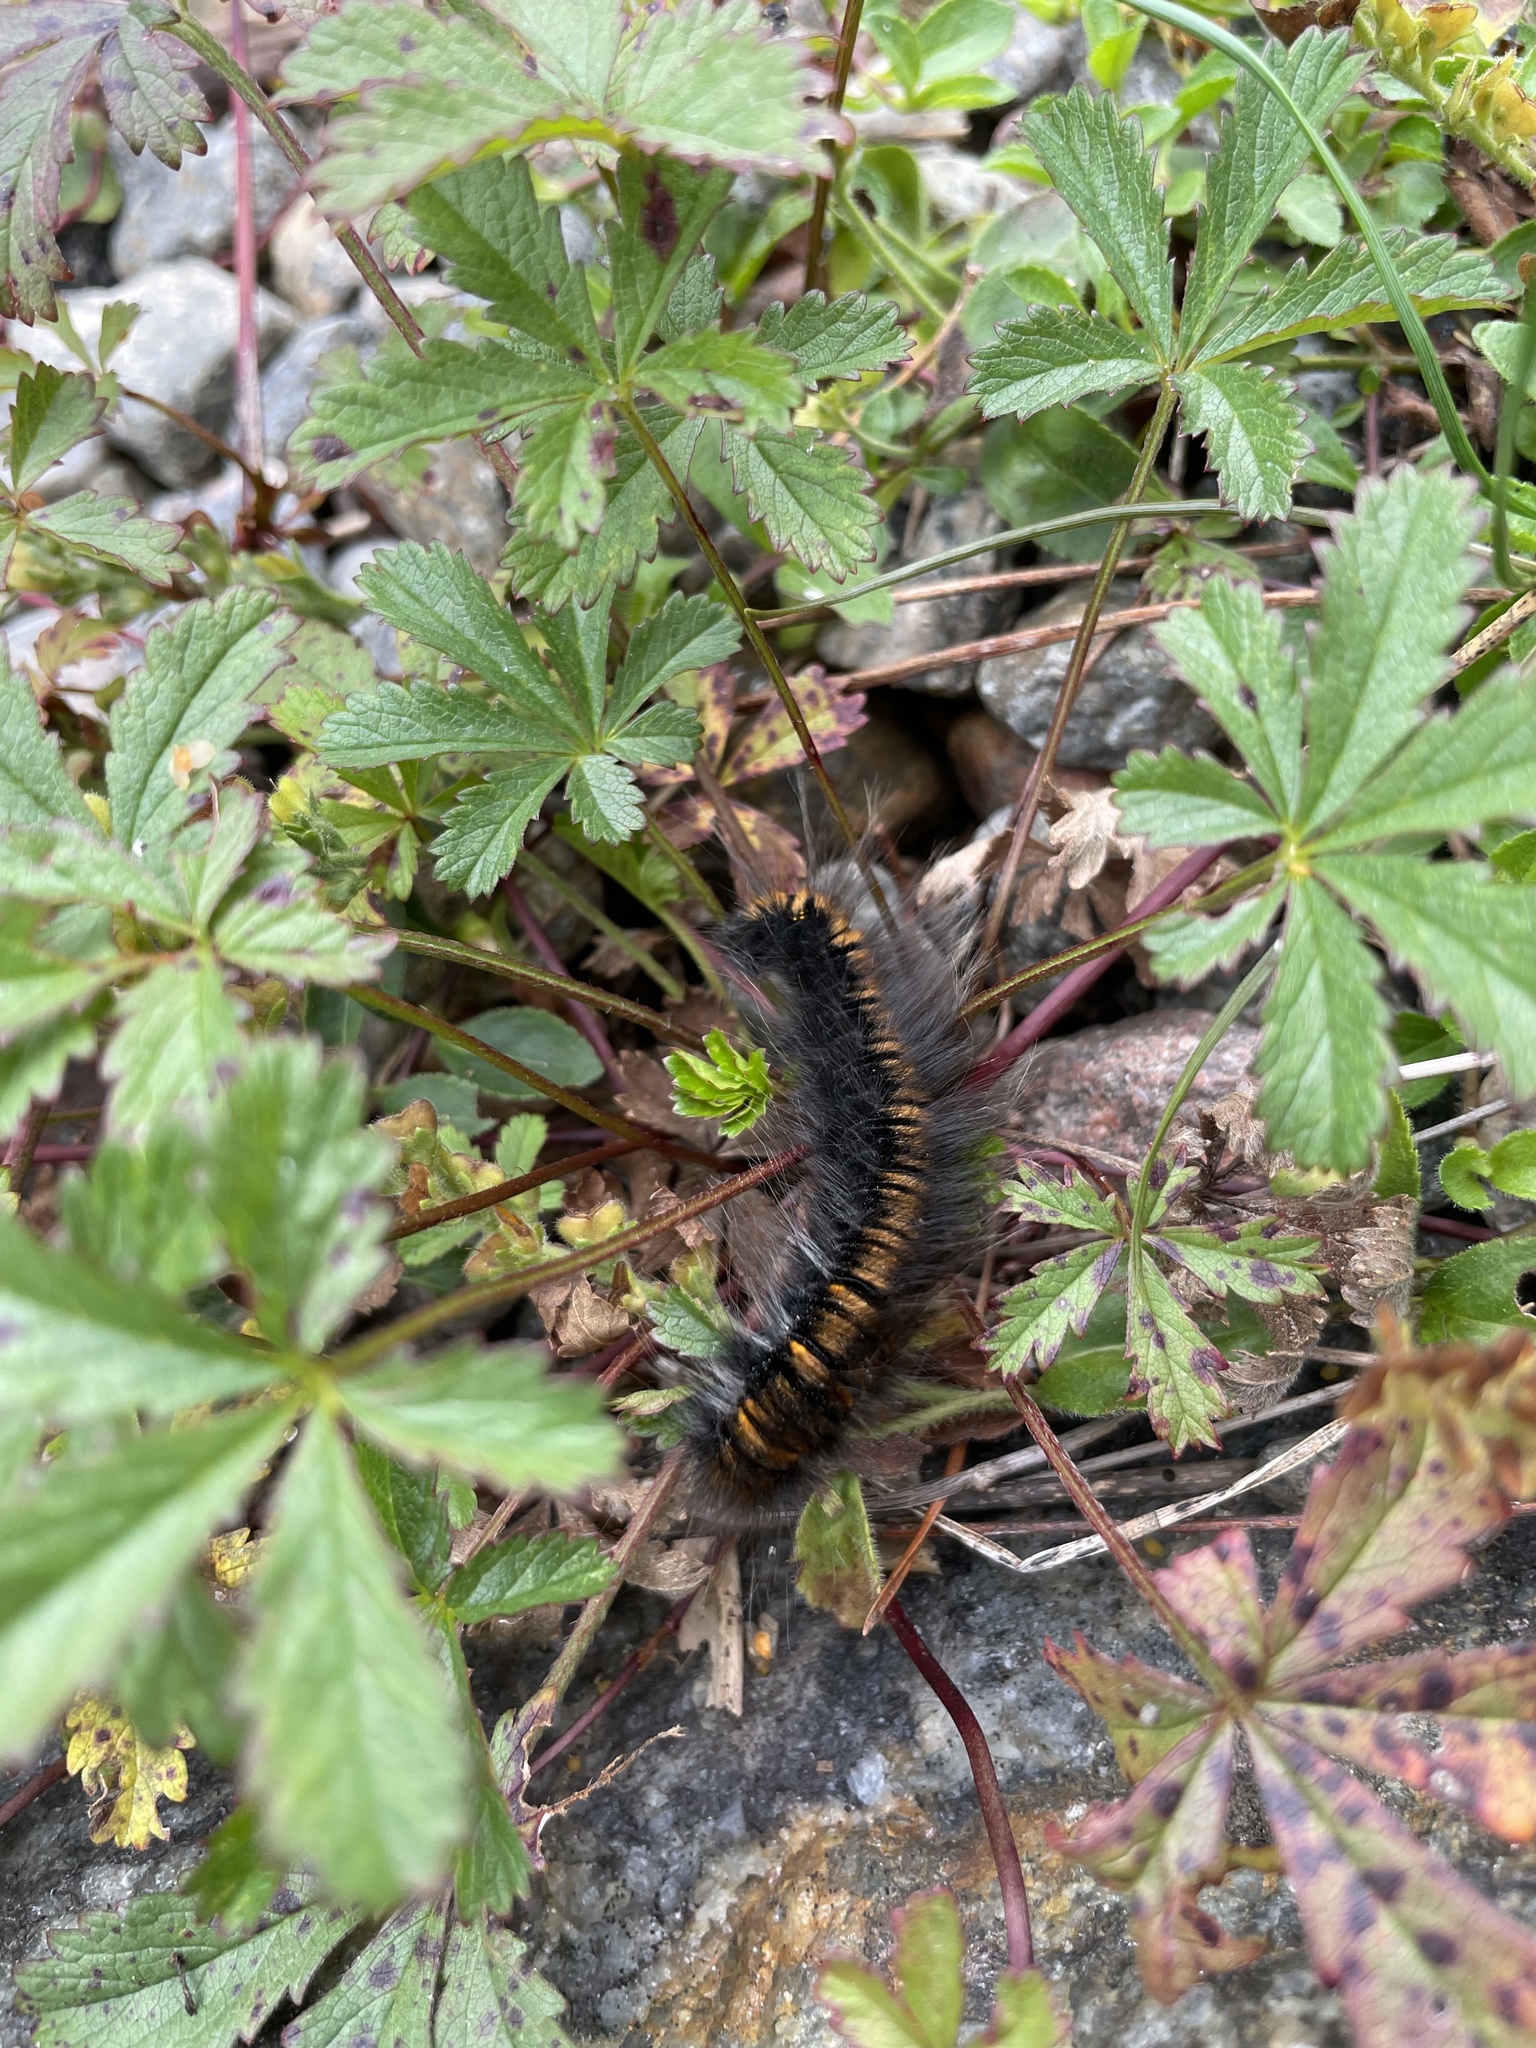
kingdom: Animalia
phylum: Arthropoda
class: Insecta
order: Lepidoptera
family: Lasiocampidae
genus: Macrothylacia
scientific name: Macrothylacia rubi
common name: Fox moth
